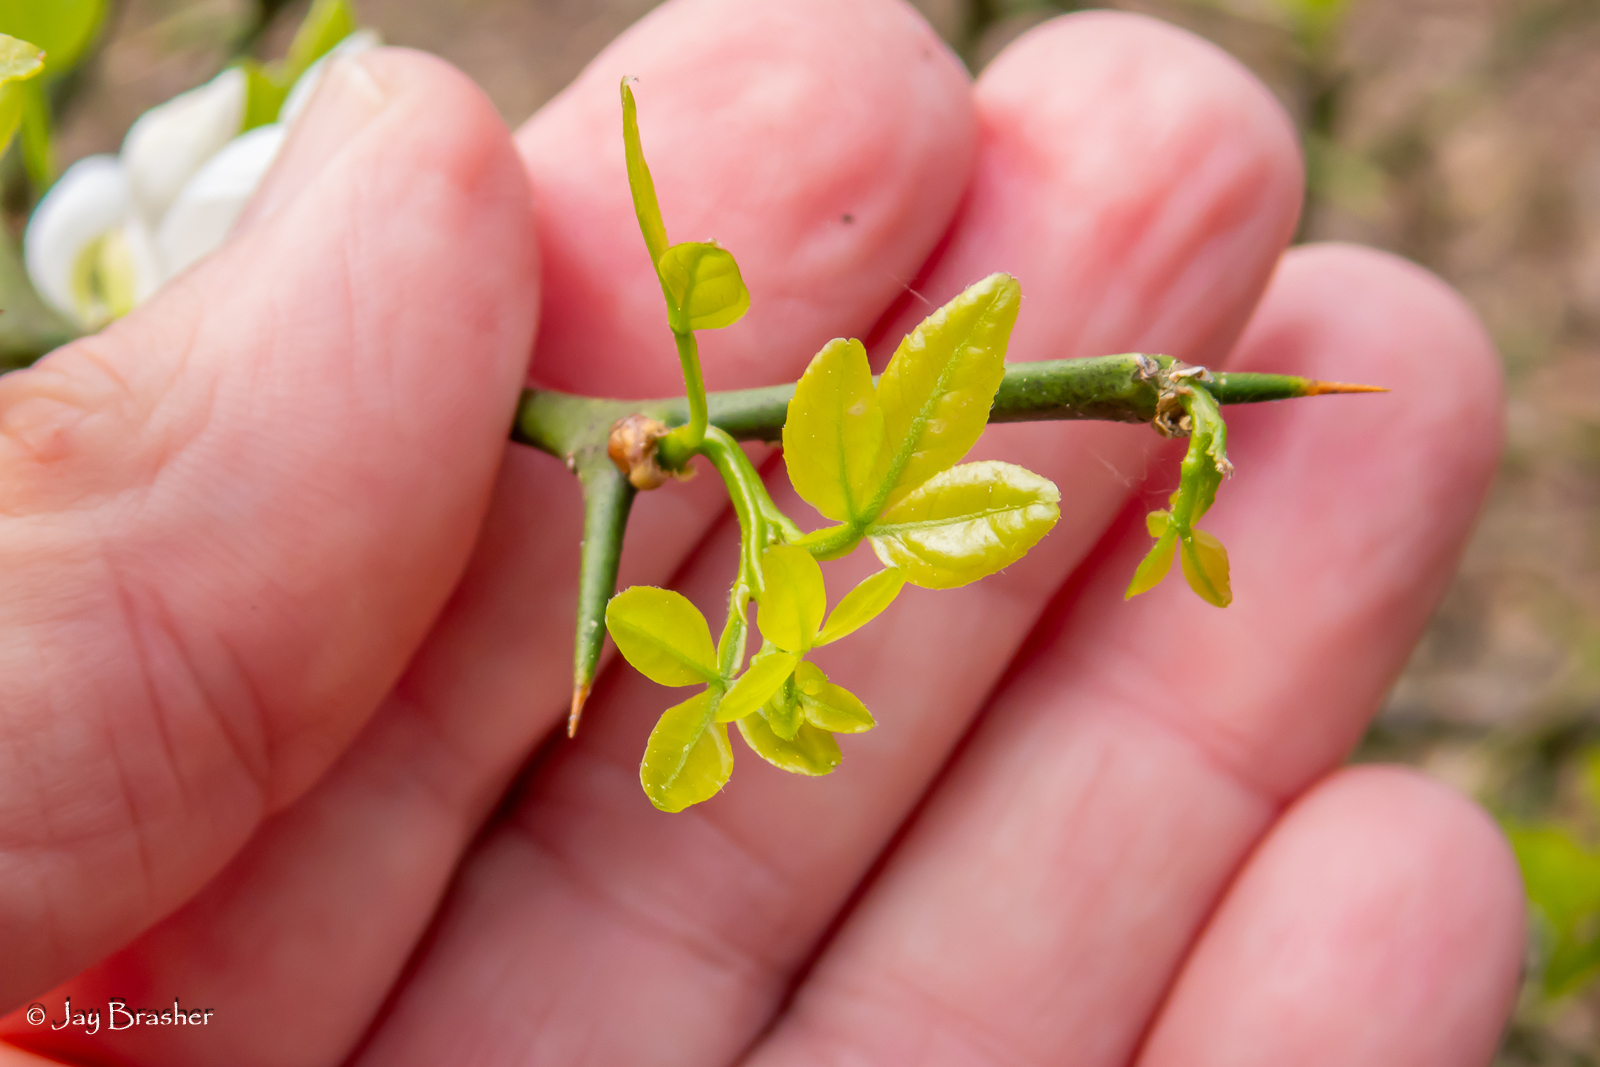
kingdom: Plantae
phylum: Tracheophyta
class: Magnoliopsida
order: Sapindales
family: Rutaceae
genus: Citrus
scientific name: Citrus trifoliata
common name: Japanese bitter-orange
